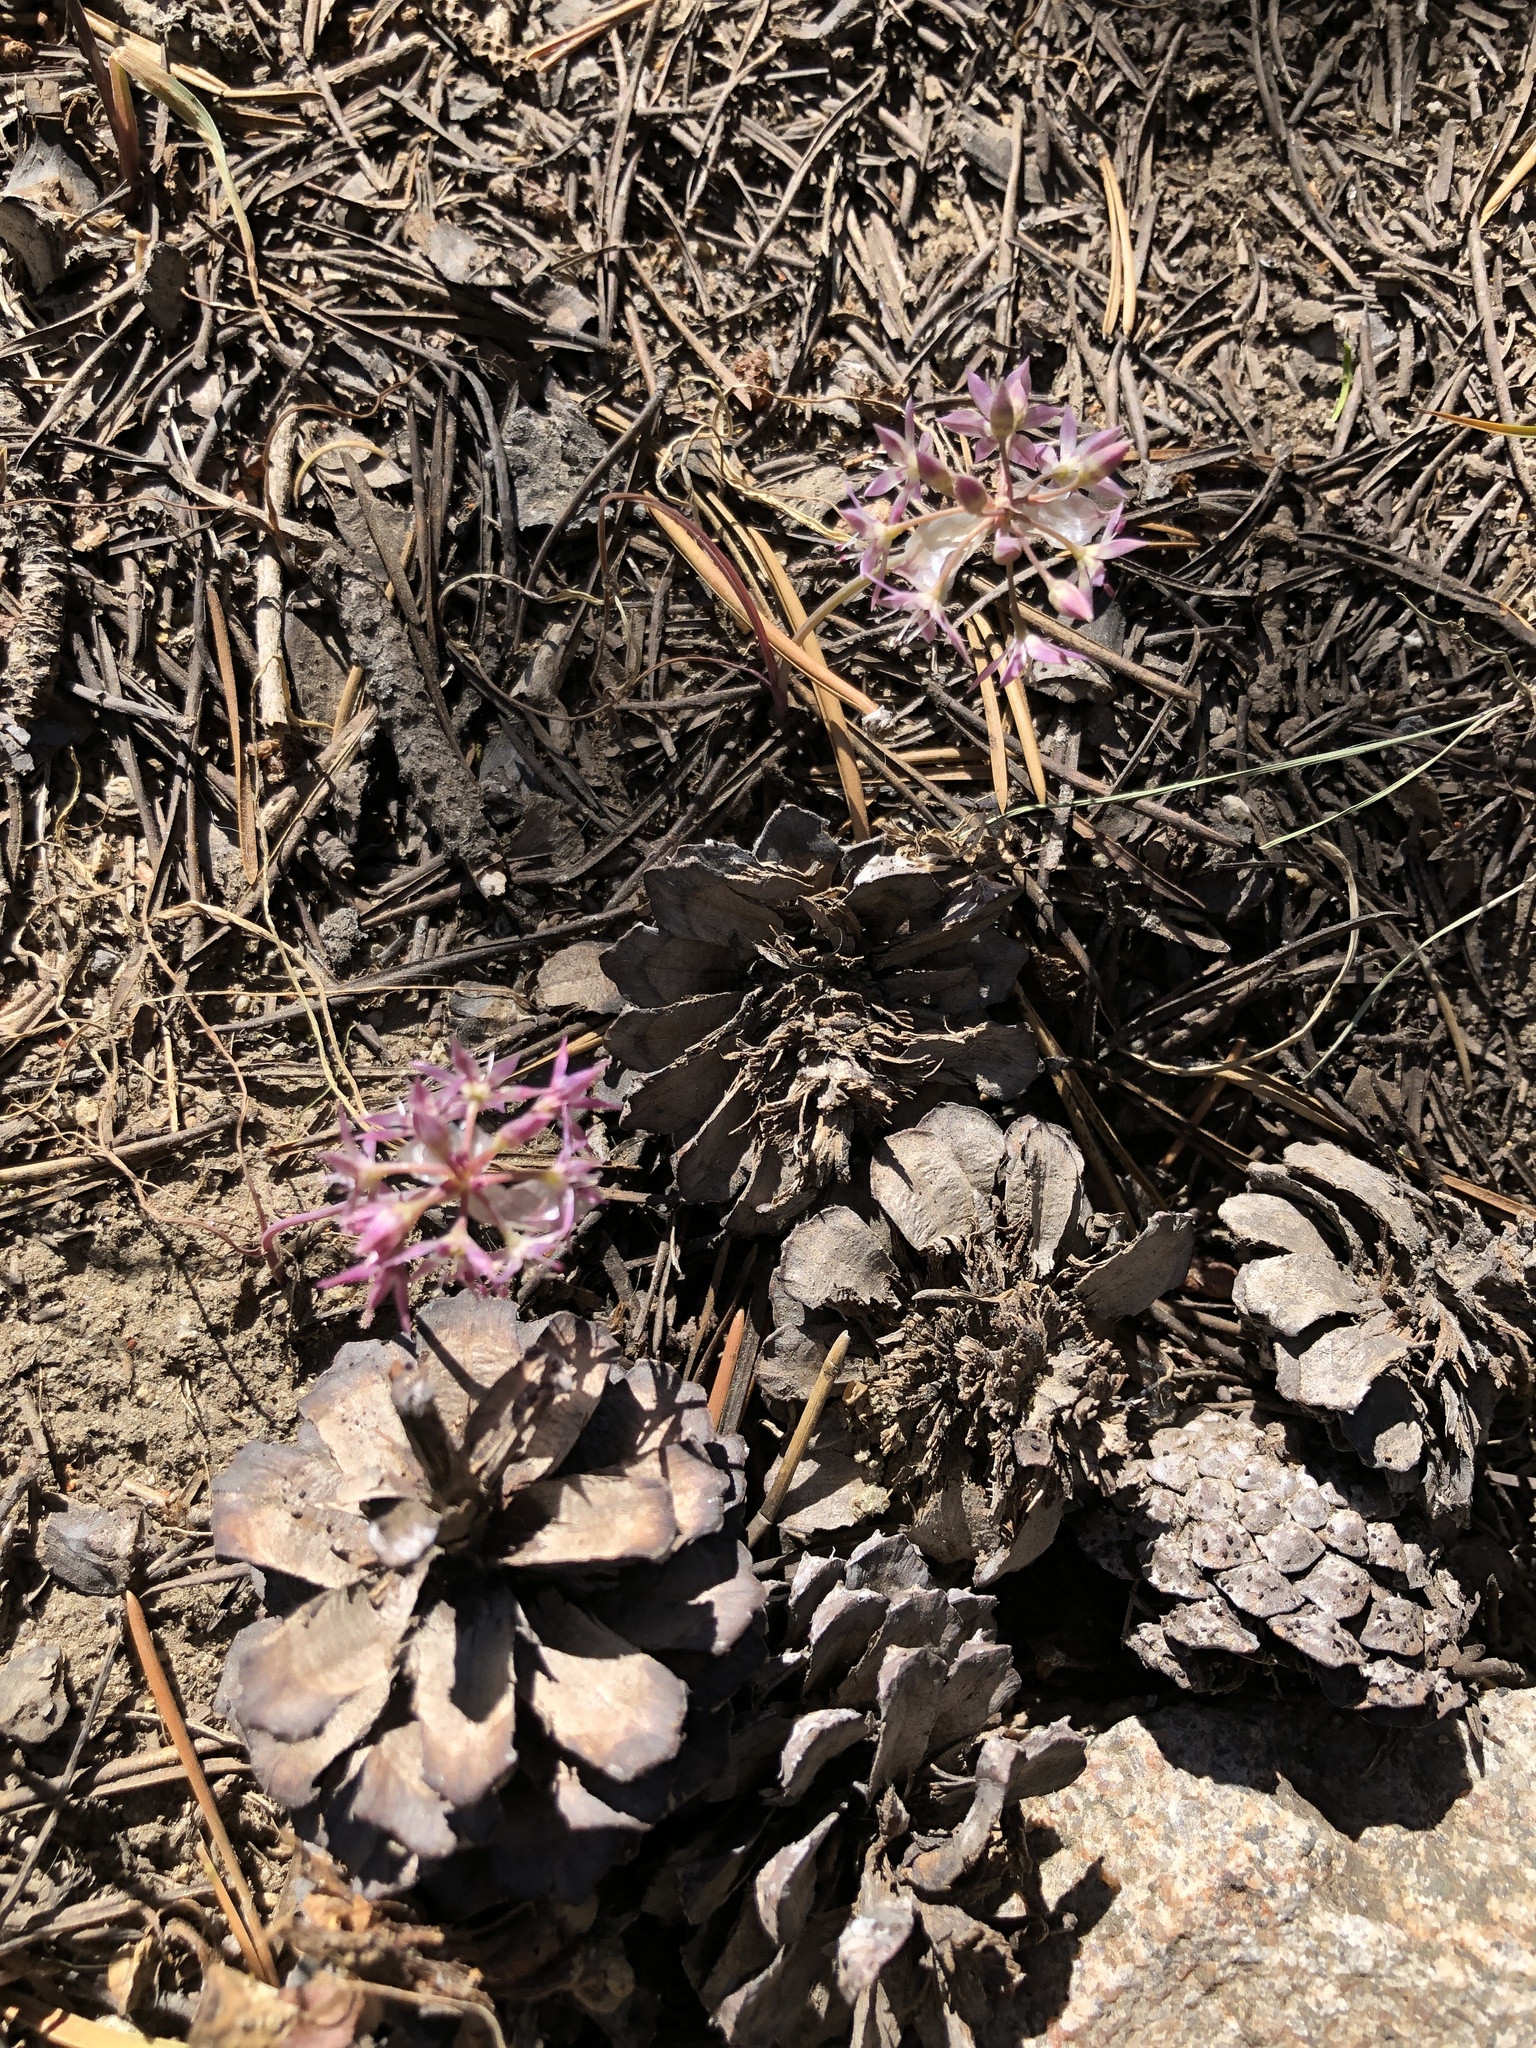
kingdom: Plantae
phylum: Tracheophyta
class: Liliopsida
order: Asparagales
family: Amaryllidaceae
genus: Allium
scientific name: Allium campanulatum
